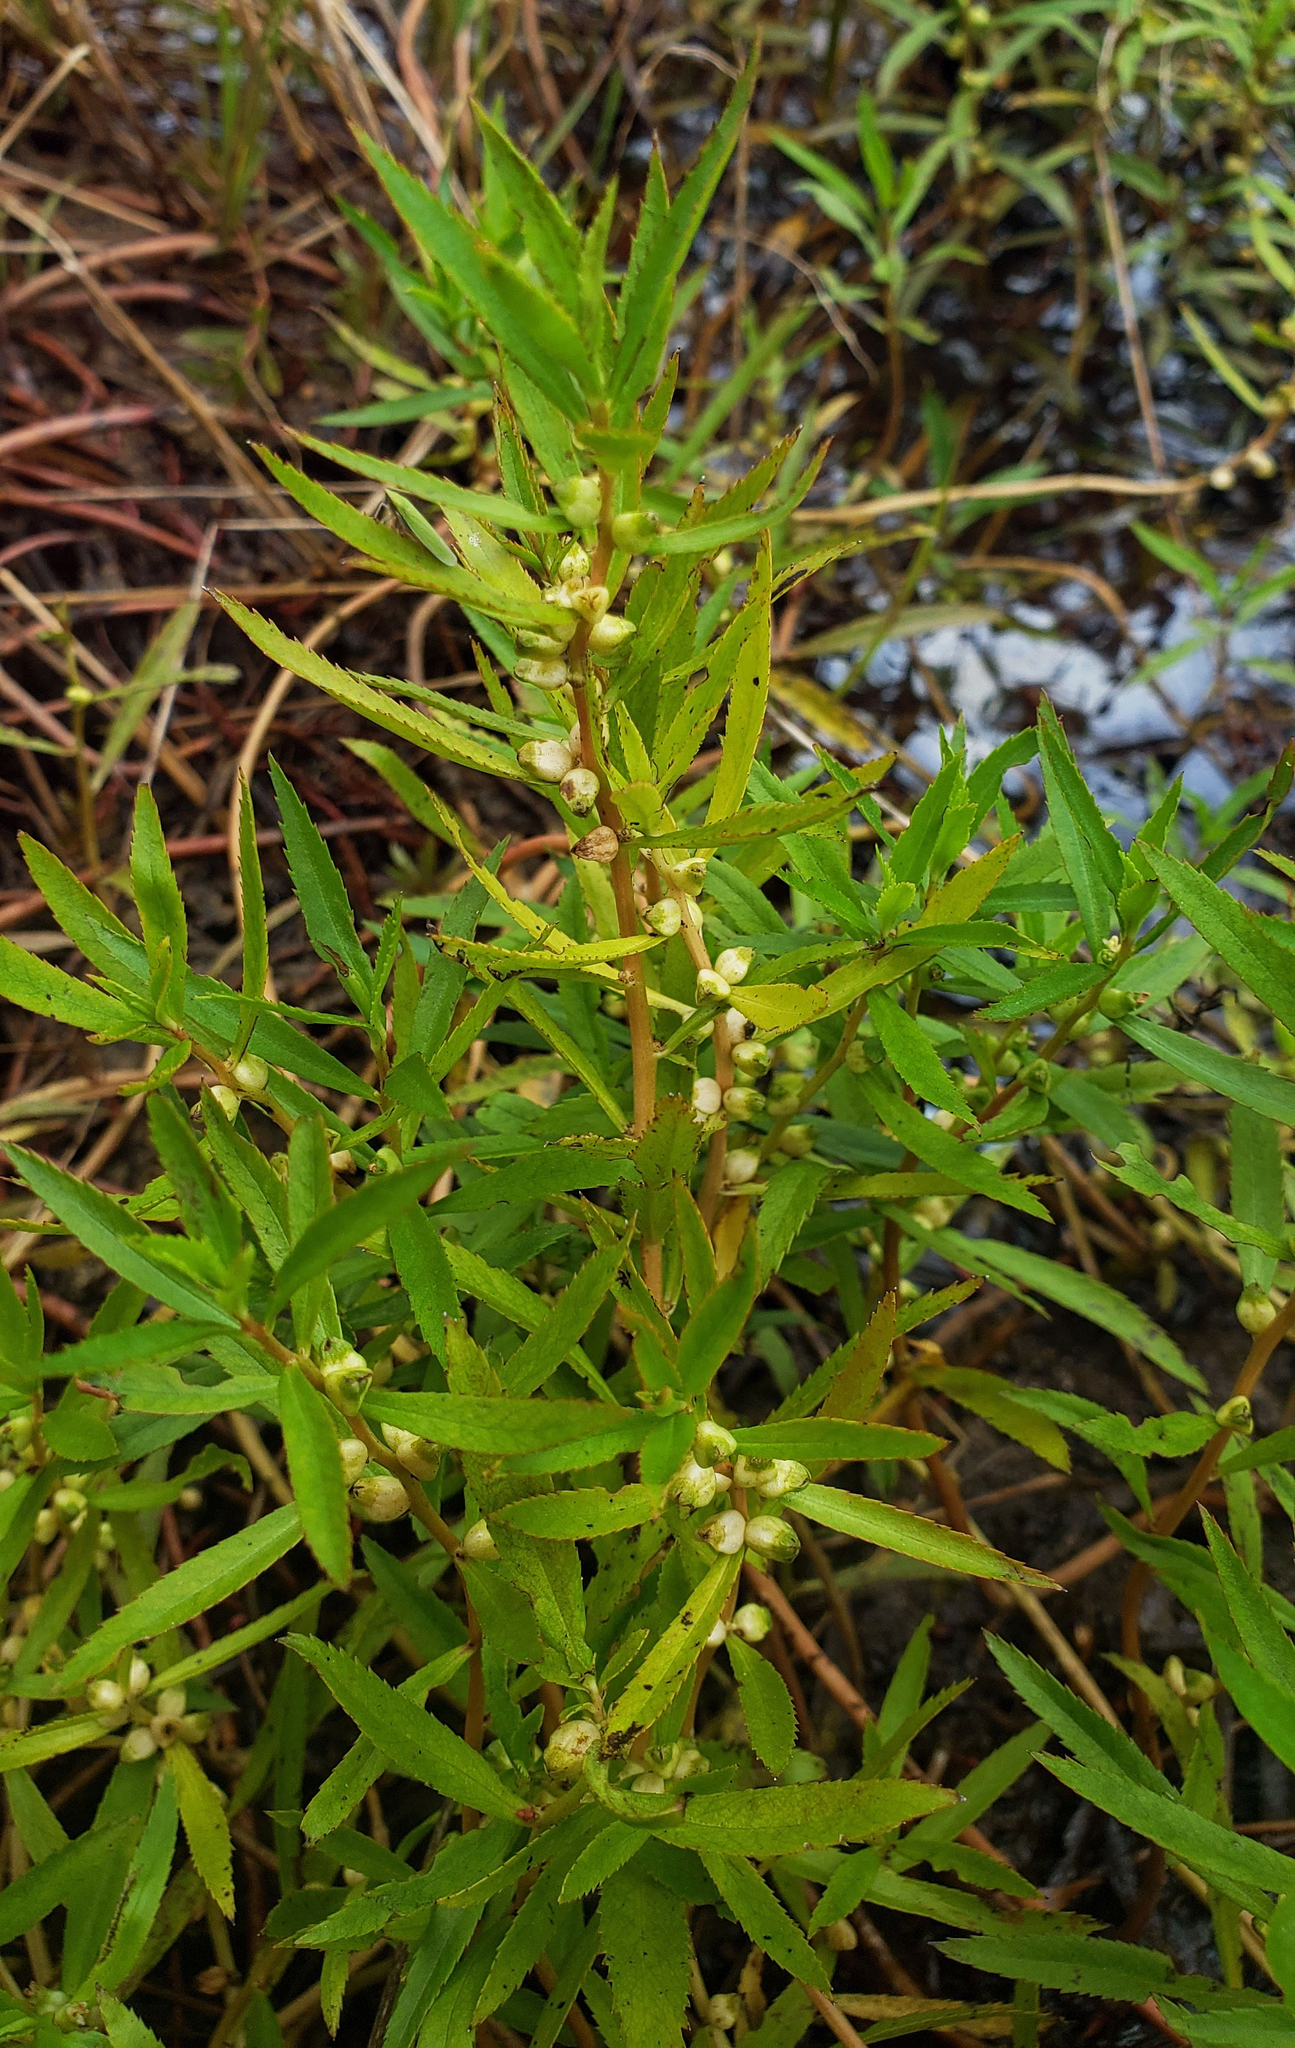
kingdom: Plantae
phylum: Tracheophyta
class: Magnoliopsida
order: Saxifragales
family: Haloragaceae
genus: Proserpinaca
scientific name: Proserpinaca palustris
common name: Marsh mermaidweed
